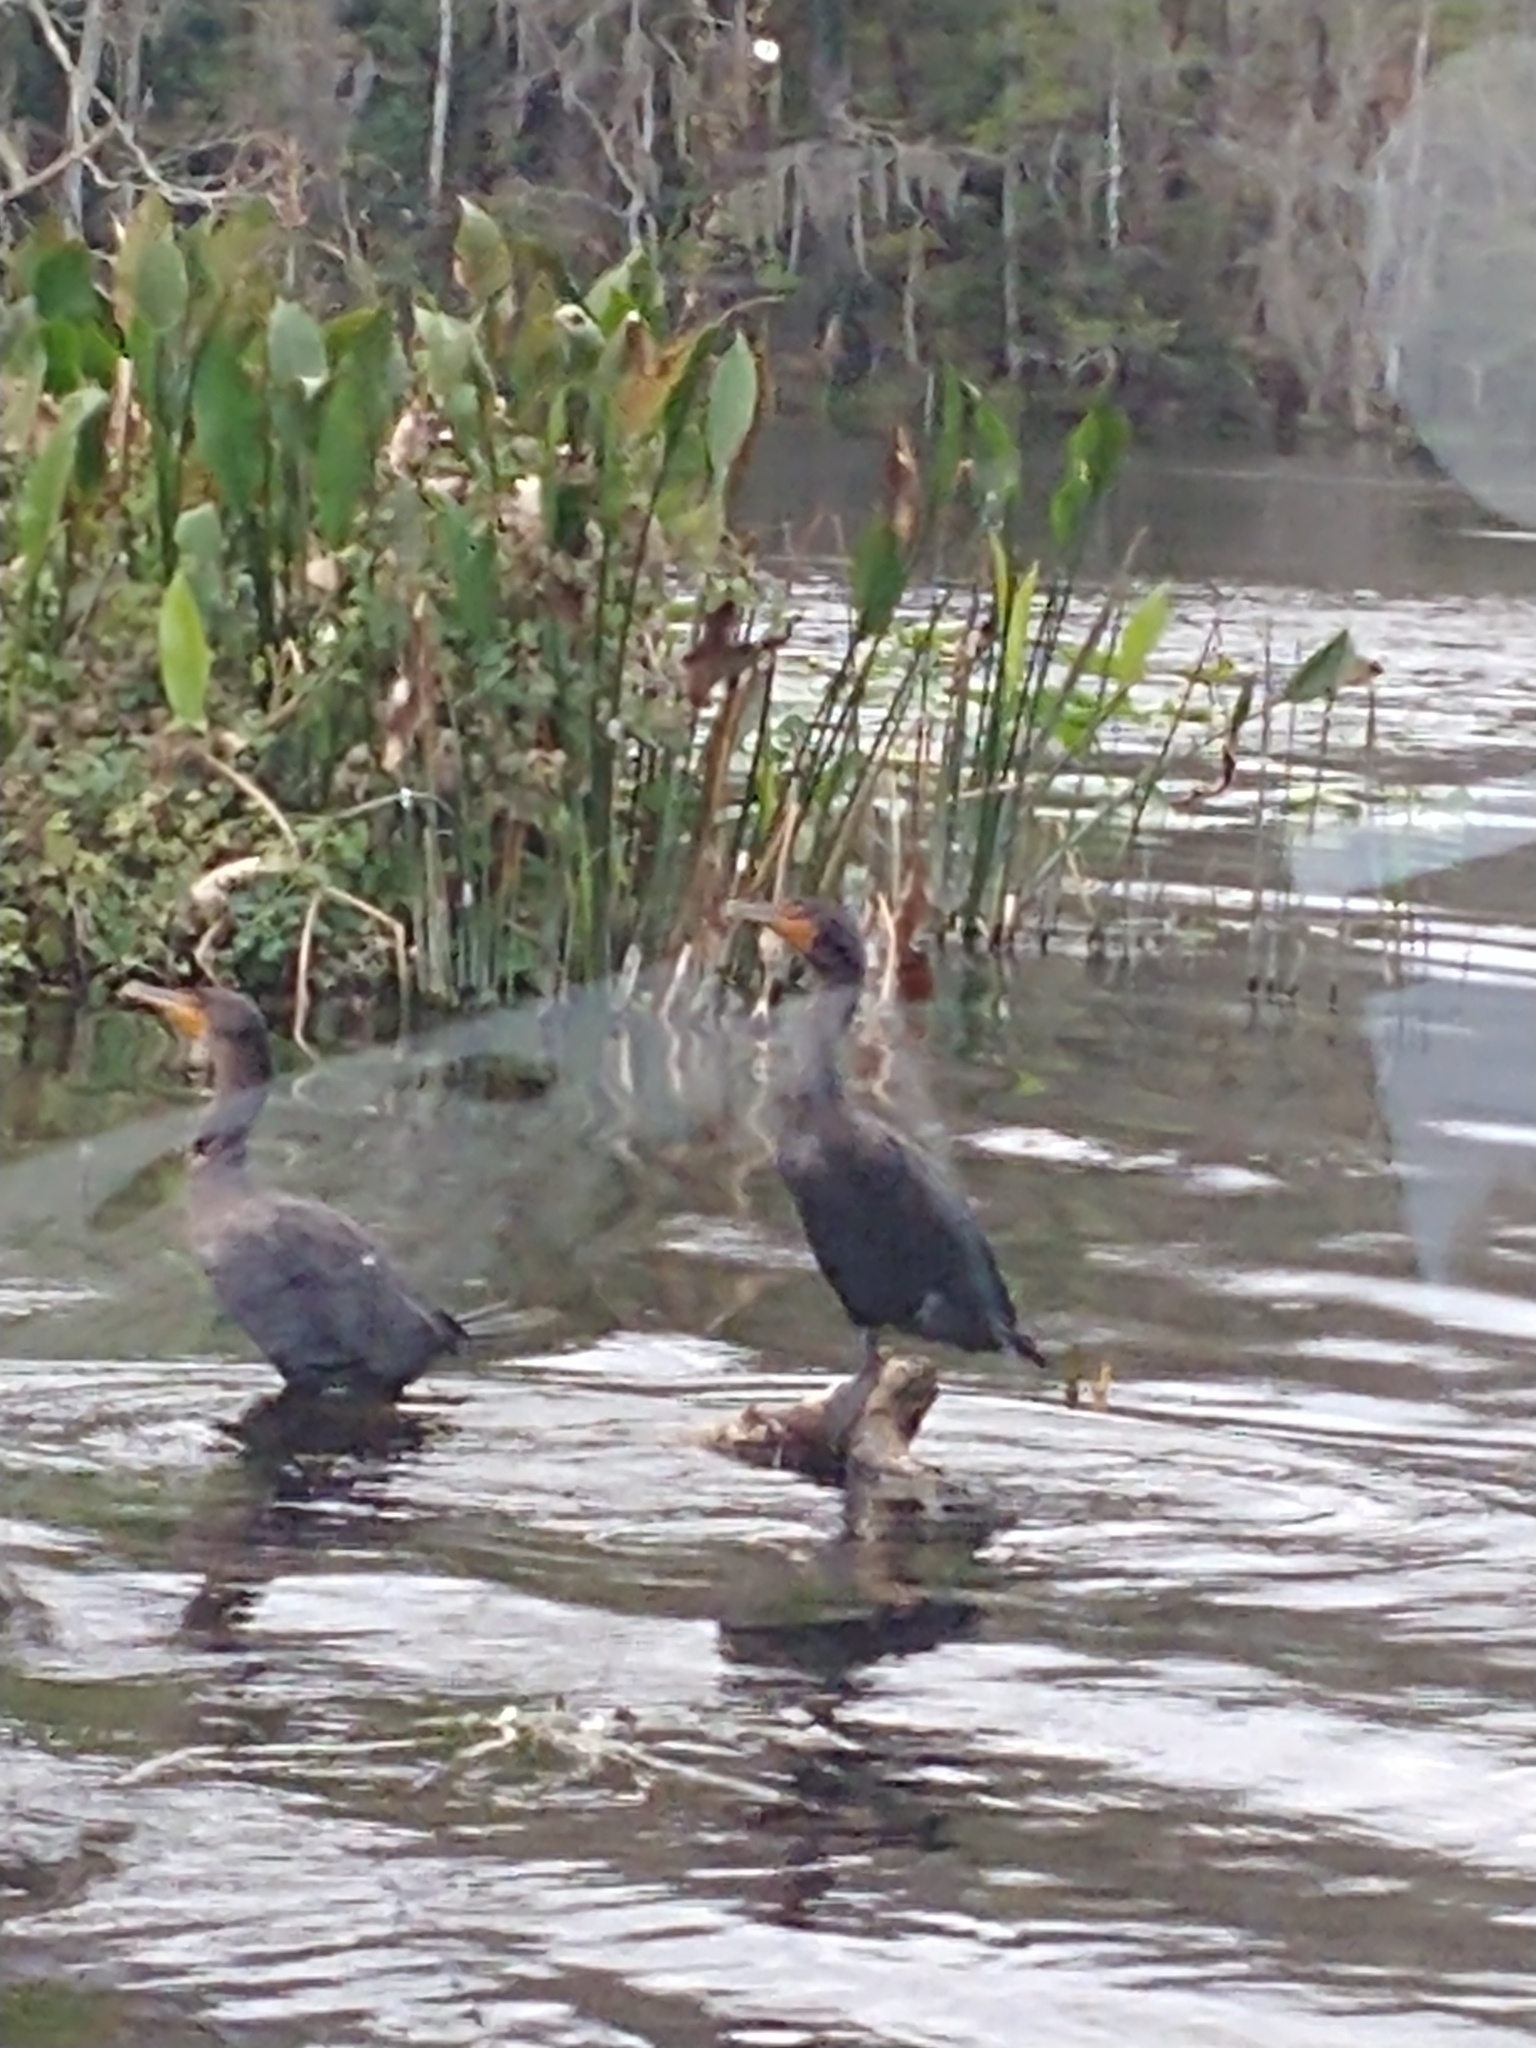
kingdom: Animalia
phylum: Chordata
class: Aves
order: Suliformes
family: Phalacrocoracidae
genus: Phalacrocorax
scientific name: Phalacrocorax auritus
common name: Double-crested cormorant
